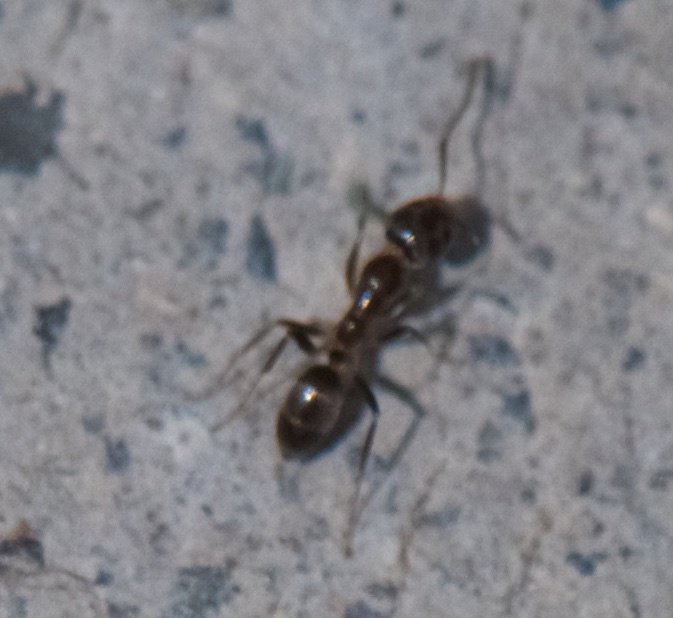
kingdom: Animalia
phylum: Arthropoda
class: Insecta
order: Hymenoptera
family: Formicidae
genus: Linepithema
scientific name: Linepithema humile
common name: Argentine ant
